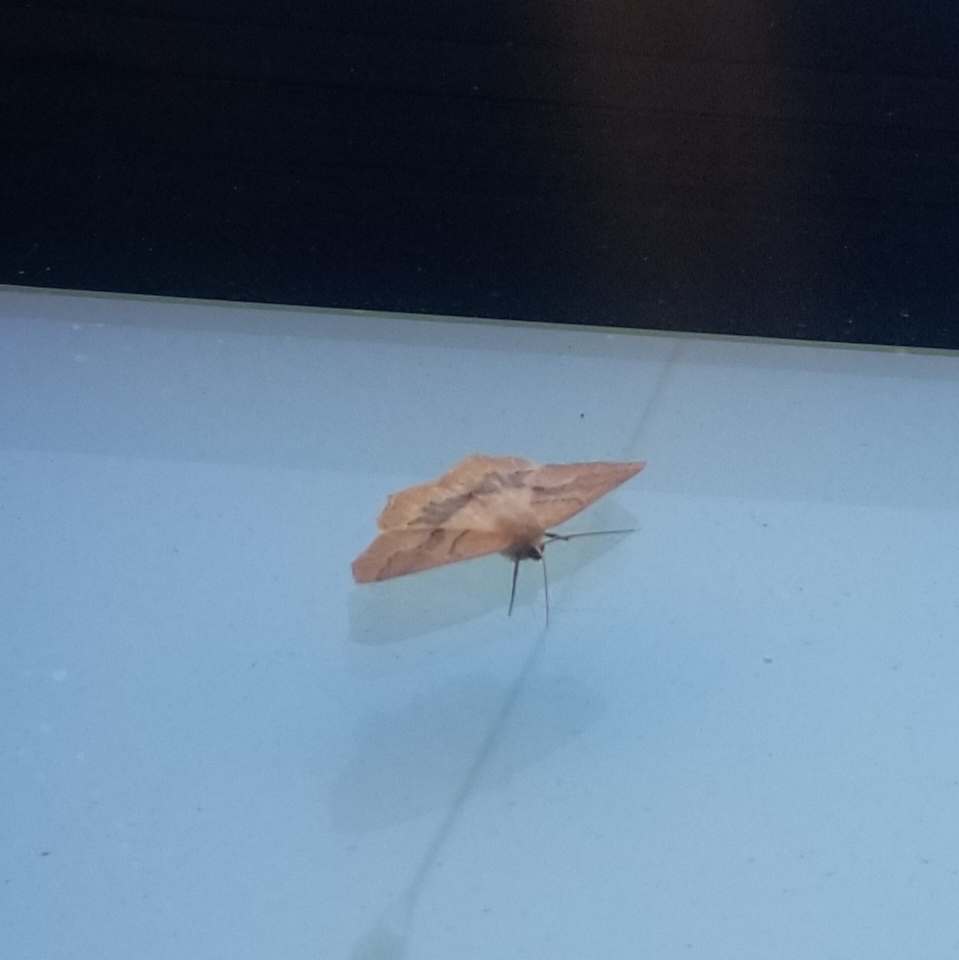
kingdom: Animalia
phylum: Arthropoda
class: Insecta
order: Lepidoptera
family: Geometridae
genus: Sabulodes
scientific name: Sabulodes aegrotata
